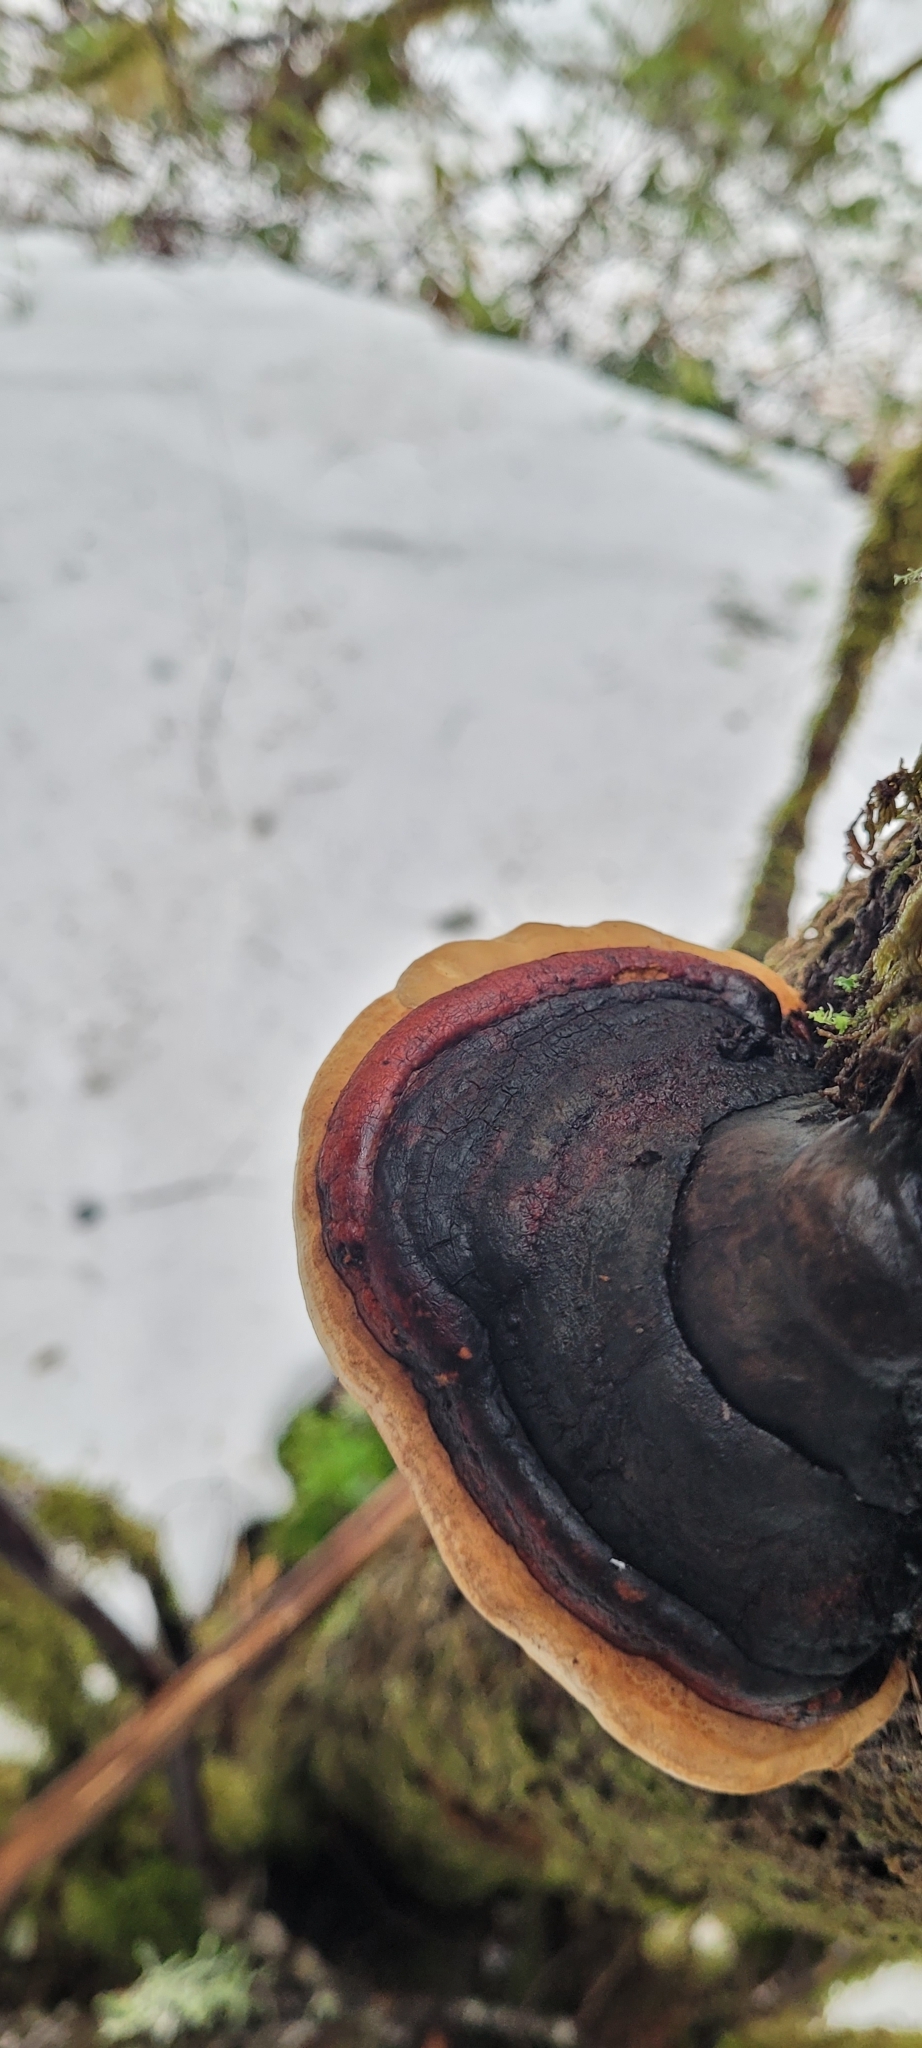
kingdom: Fungi
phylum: Basidiomycota
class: Agaricomycetes
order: Polyporales
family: Fomitopsidaceae
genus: Fomitopsis
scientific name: Fomitopsis mounceae
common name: Northern red belt
